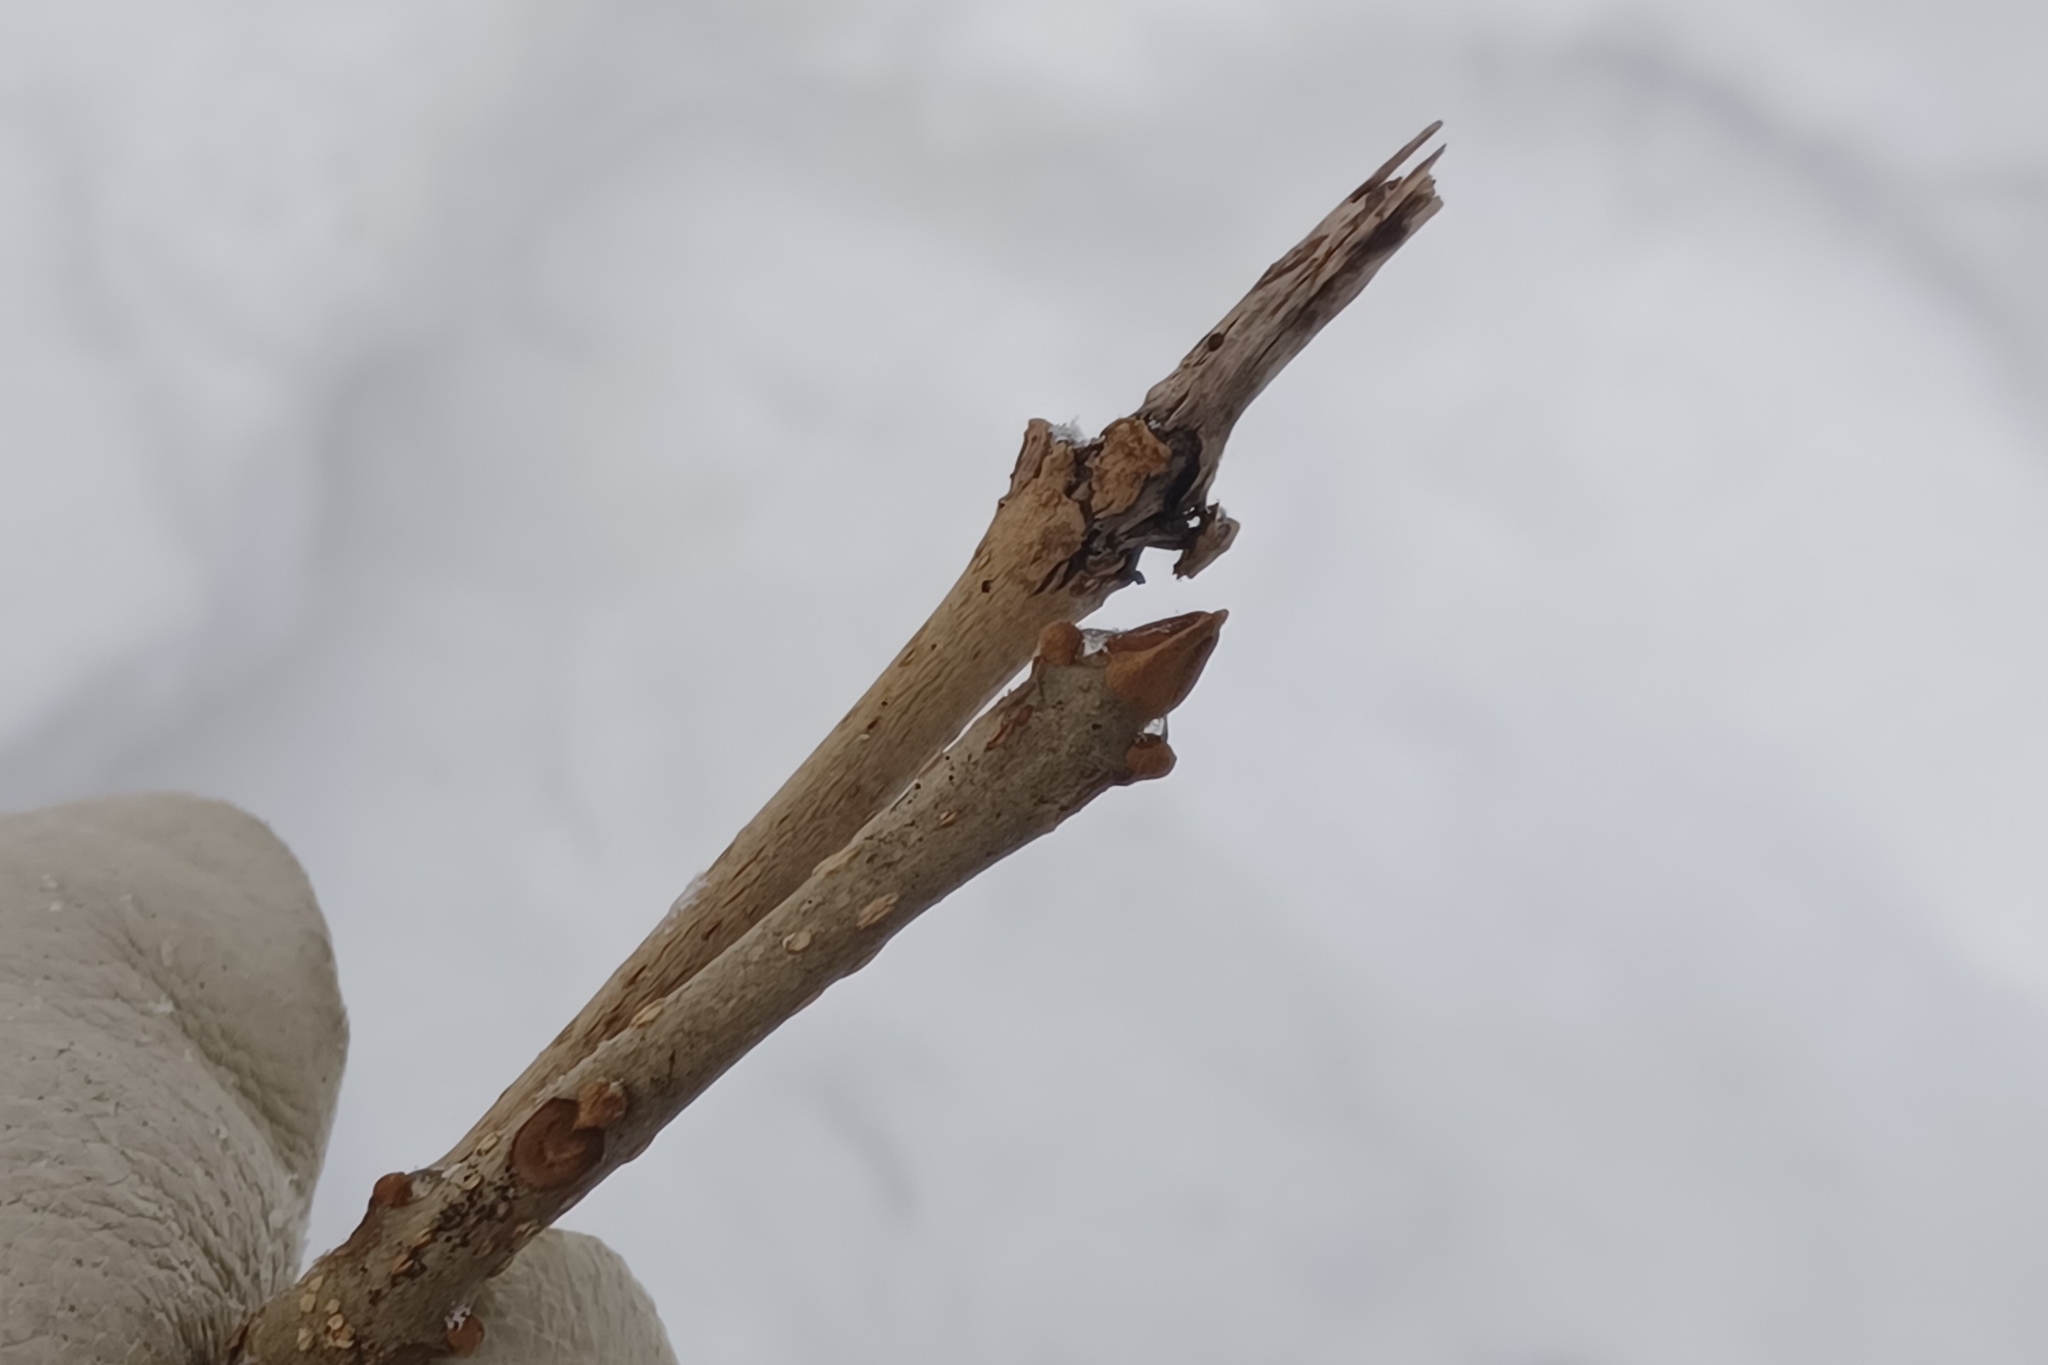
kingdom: Plantae
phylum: Tracheophyta
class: Magnoliopsida
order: Lamiales
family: Oleaceae
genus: Fraxinus
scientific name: Fraxinus nigra
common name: Black ash
